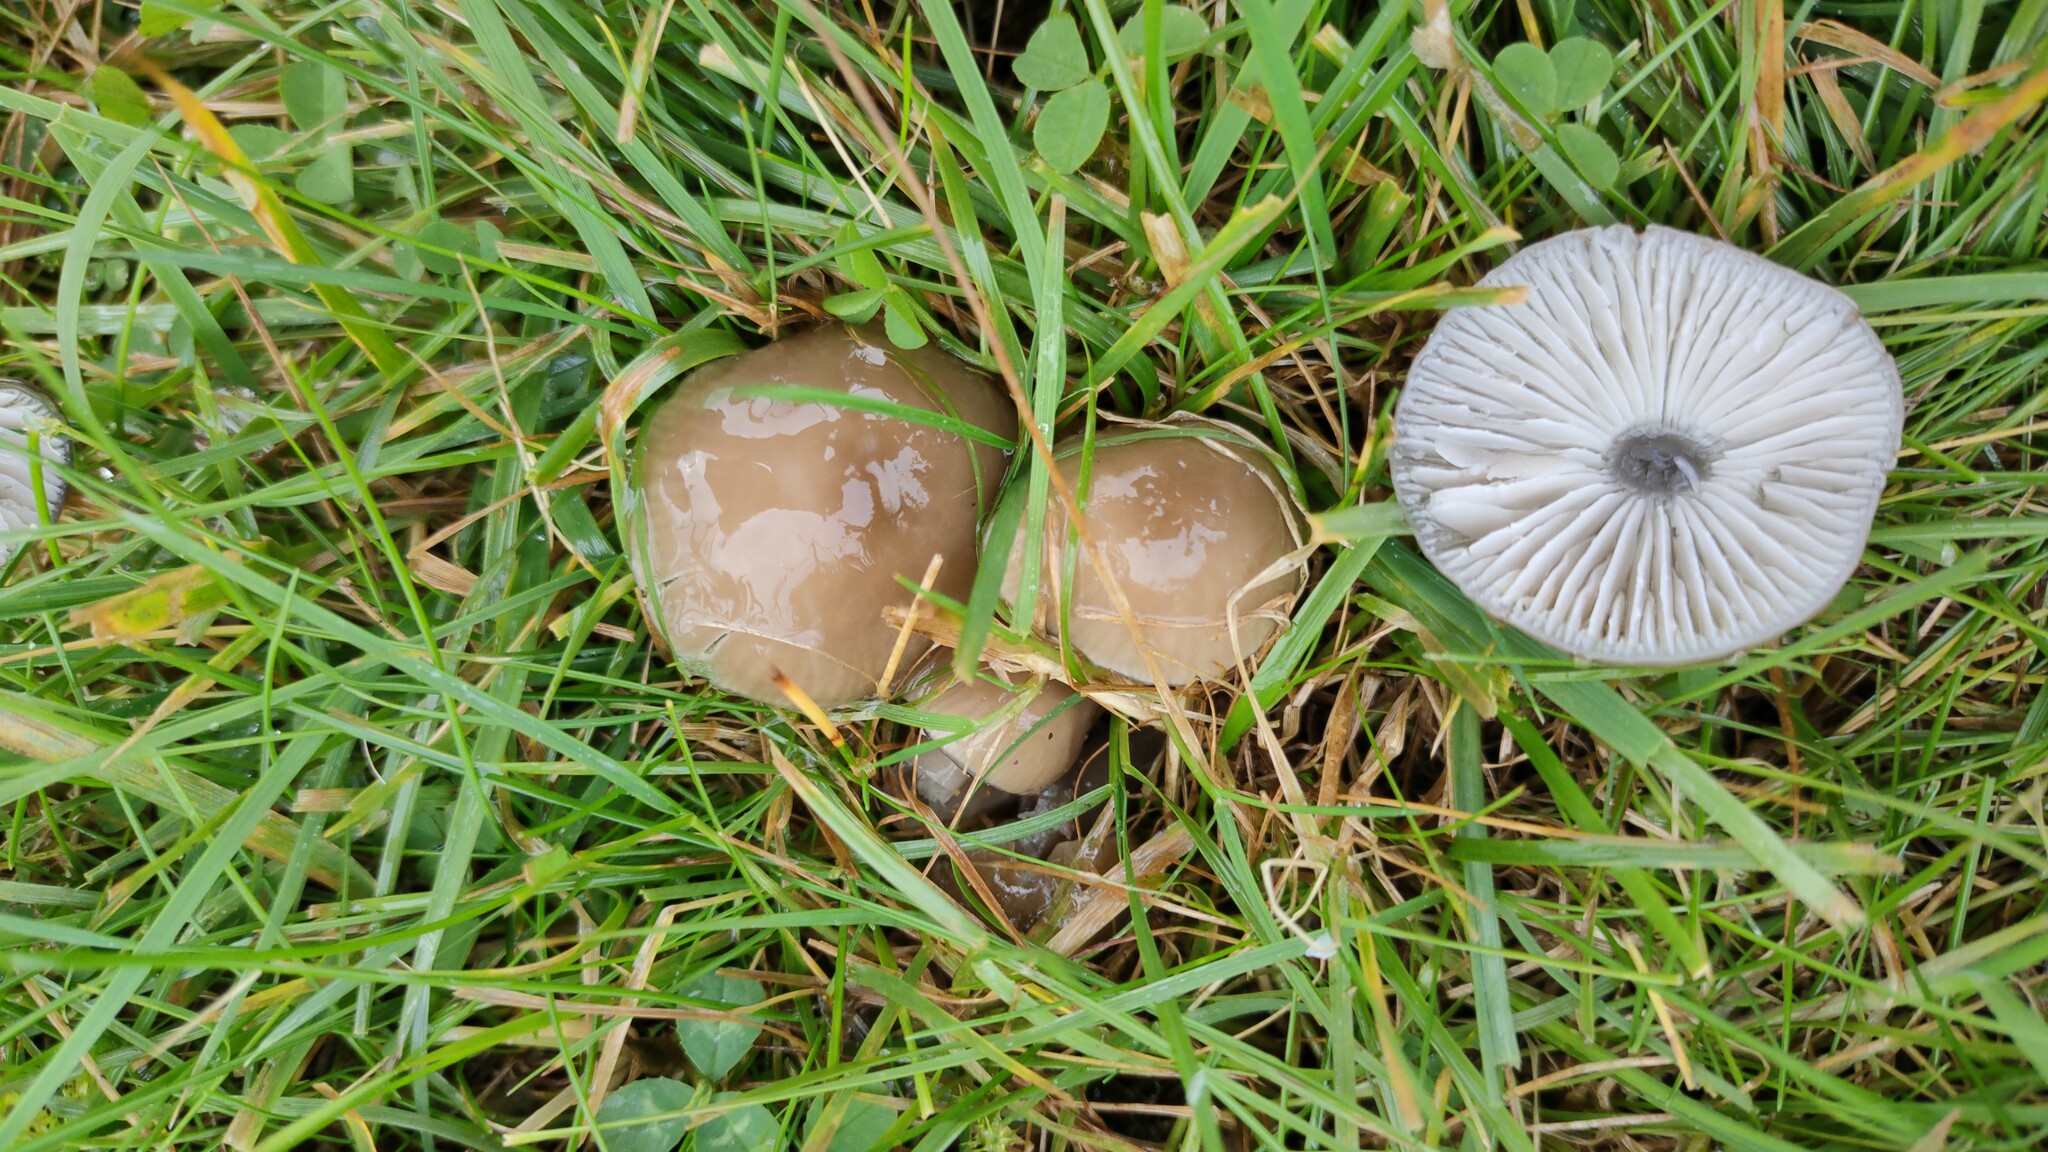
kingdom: Fungi
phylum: Basidiomycota
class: Agaricomycetes
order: Agaricales
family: Hygrophoraceae
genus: Gliophorus
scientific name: Gliophorus irrigatus
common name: Slimy waxcap
